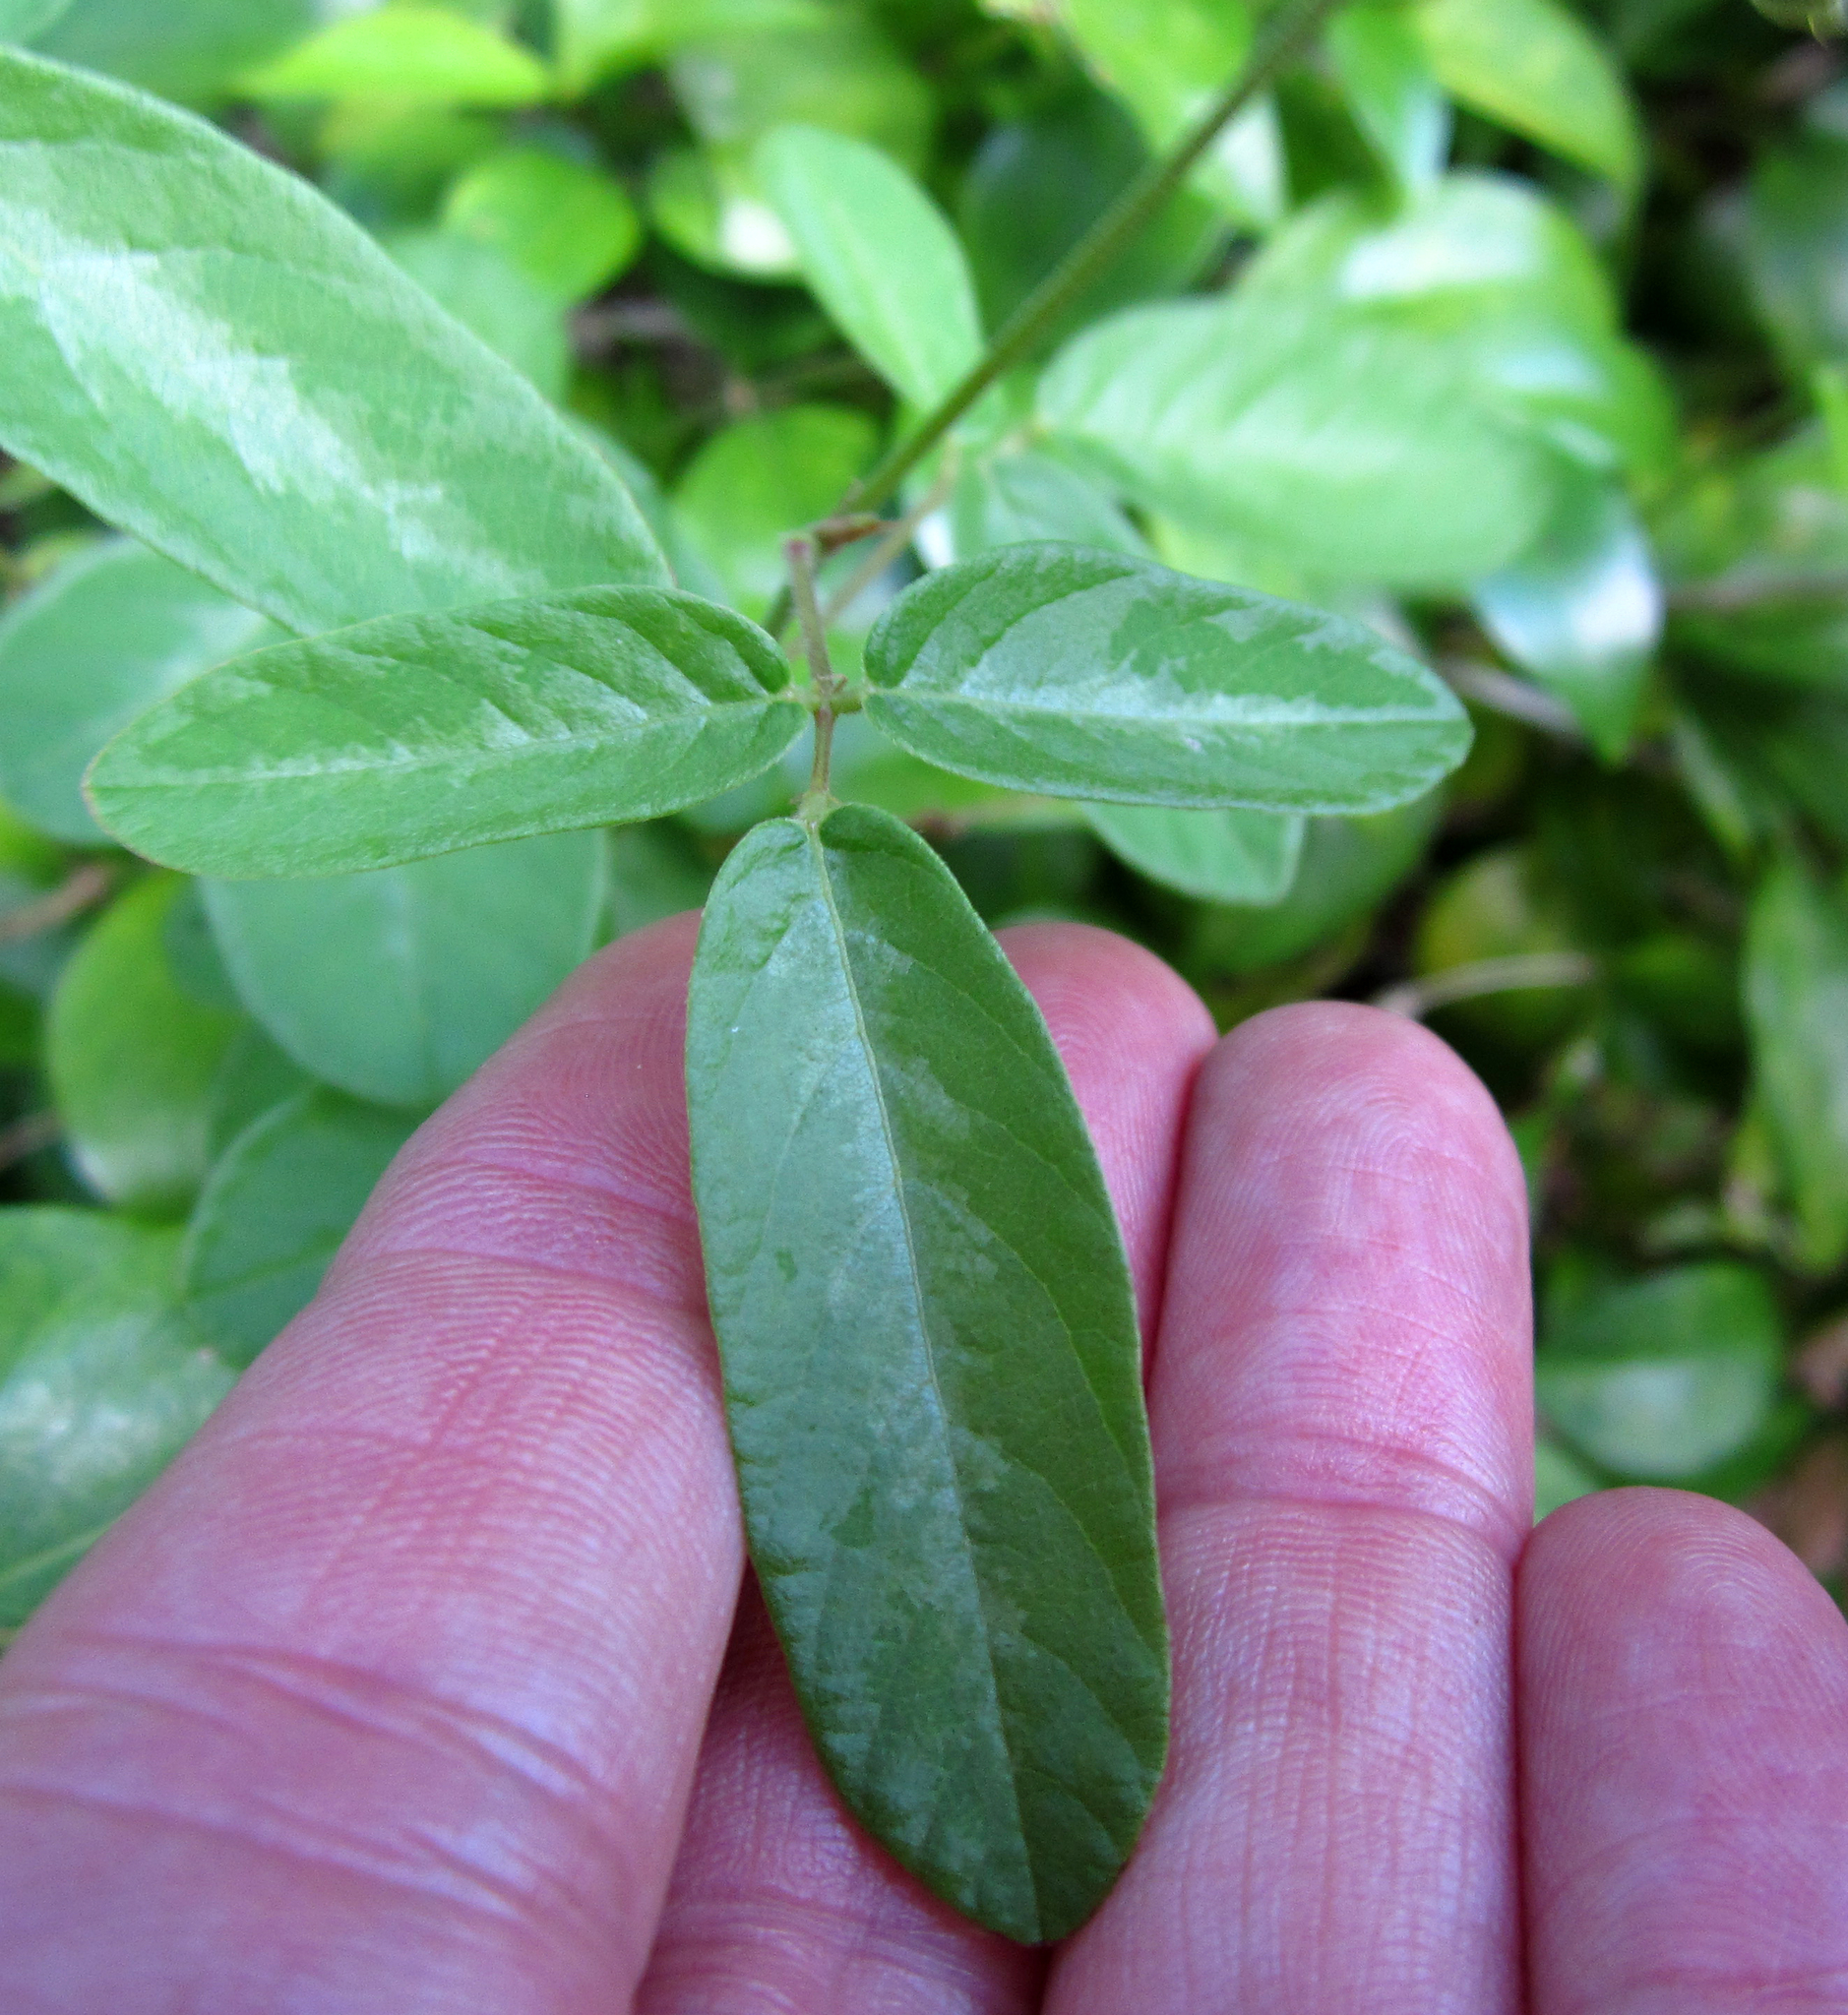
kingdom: Plantae
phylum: Tracheophyta
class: Magnoliopsida
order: Fabales
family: Fabaceae
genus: Desmodium
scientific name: Desmodium incanum
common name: Tickclover
